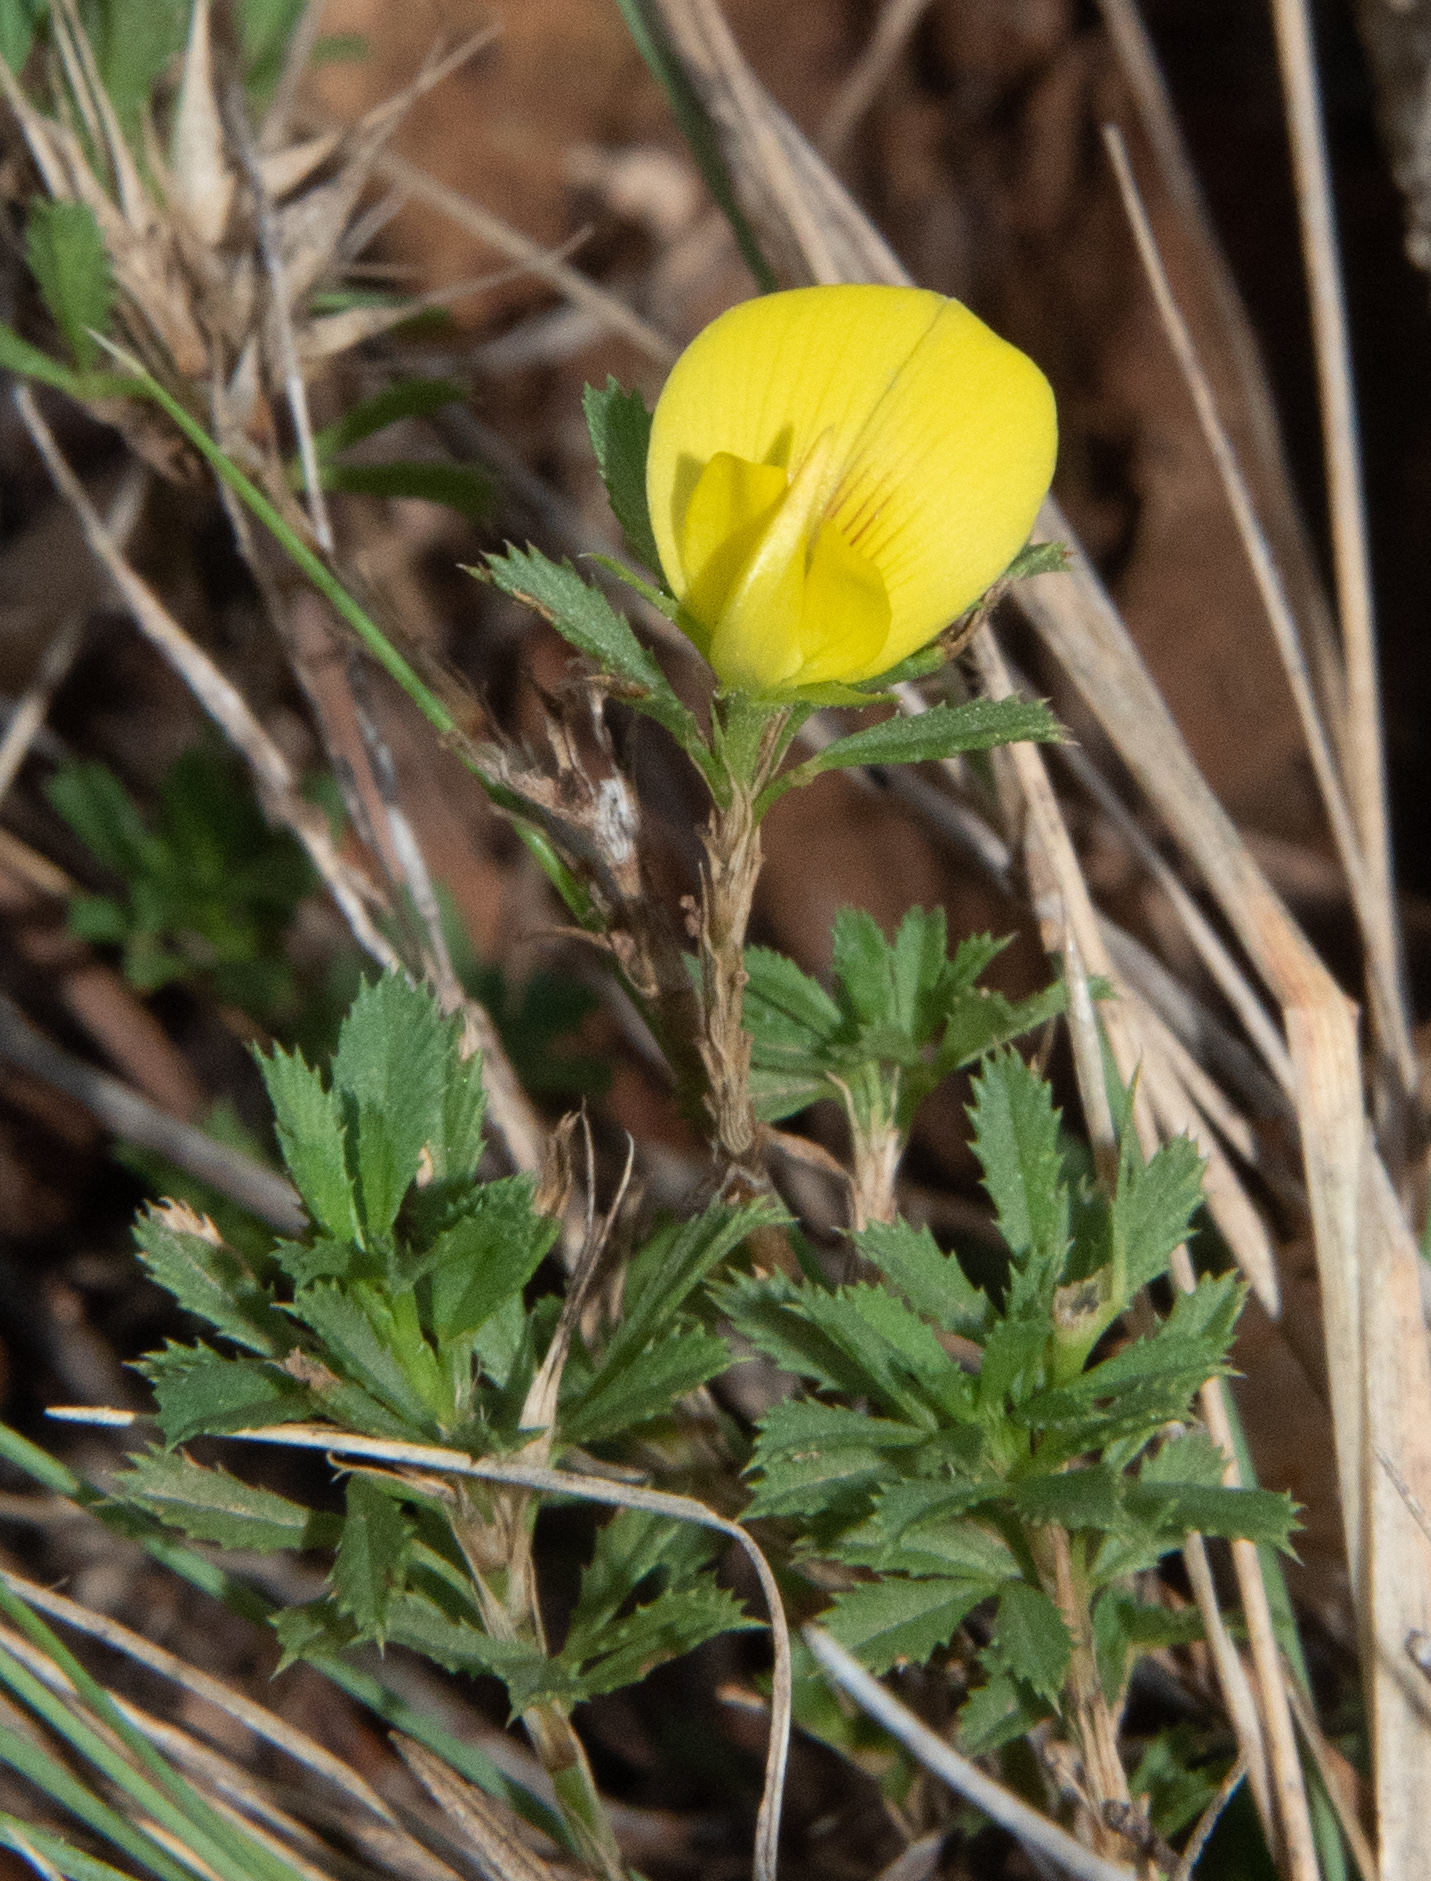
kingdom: Plantae
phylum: Tracheophyta
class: Magnoliopsida
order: Fabales
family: Fabaceae
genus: Ononis
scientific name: Ononis minutissima
